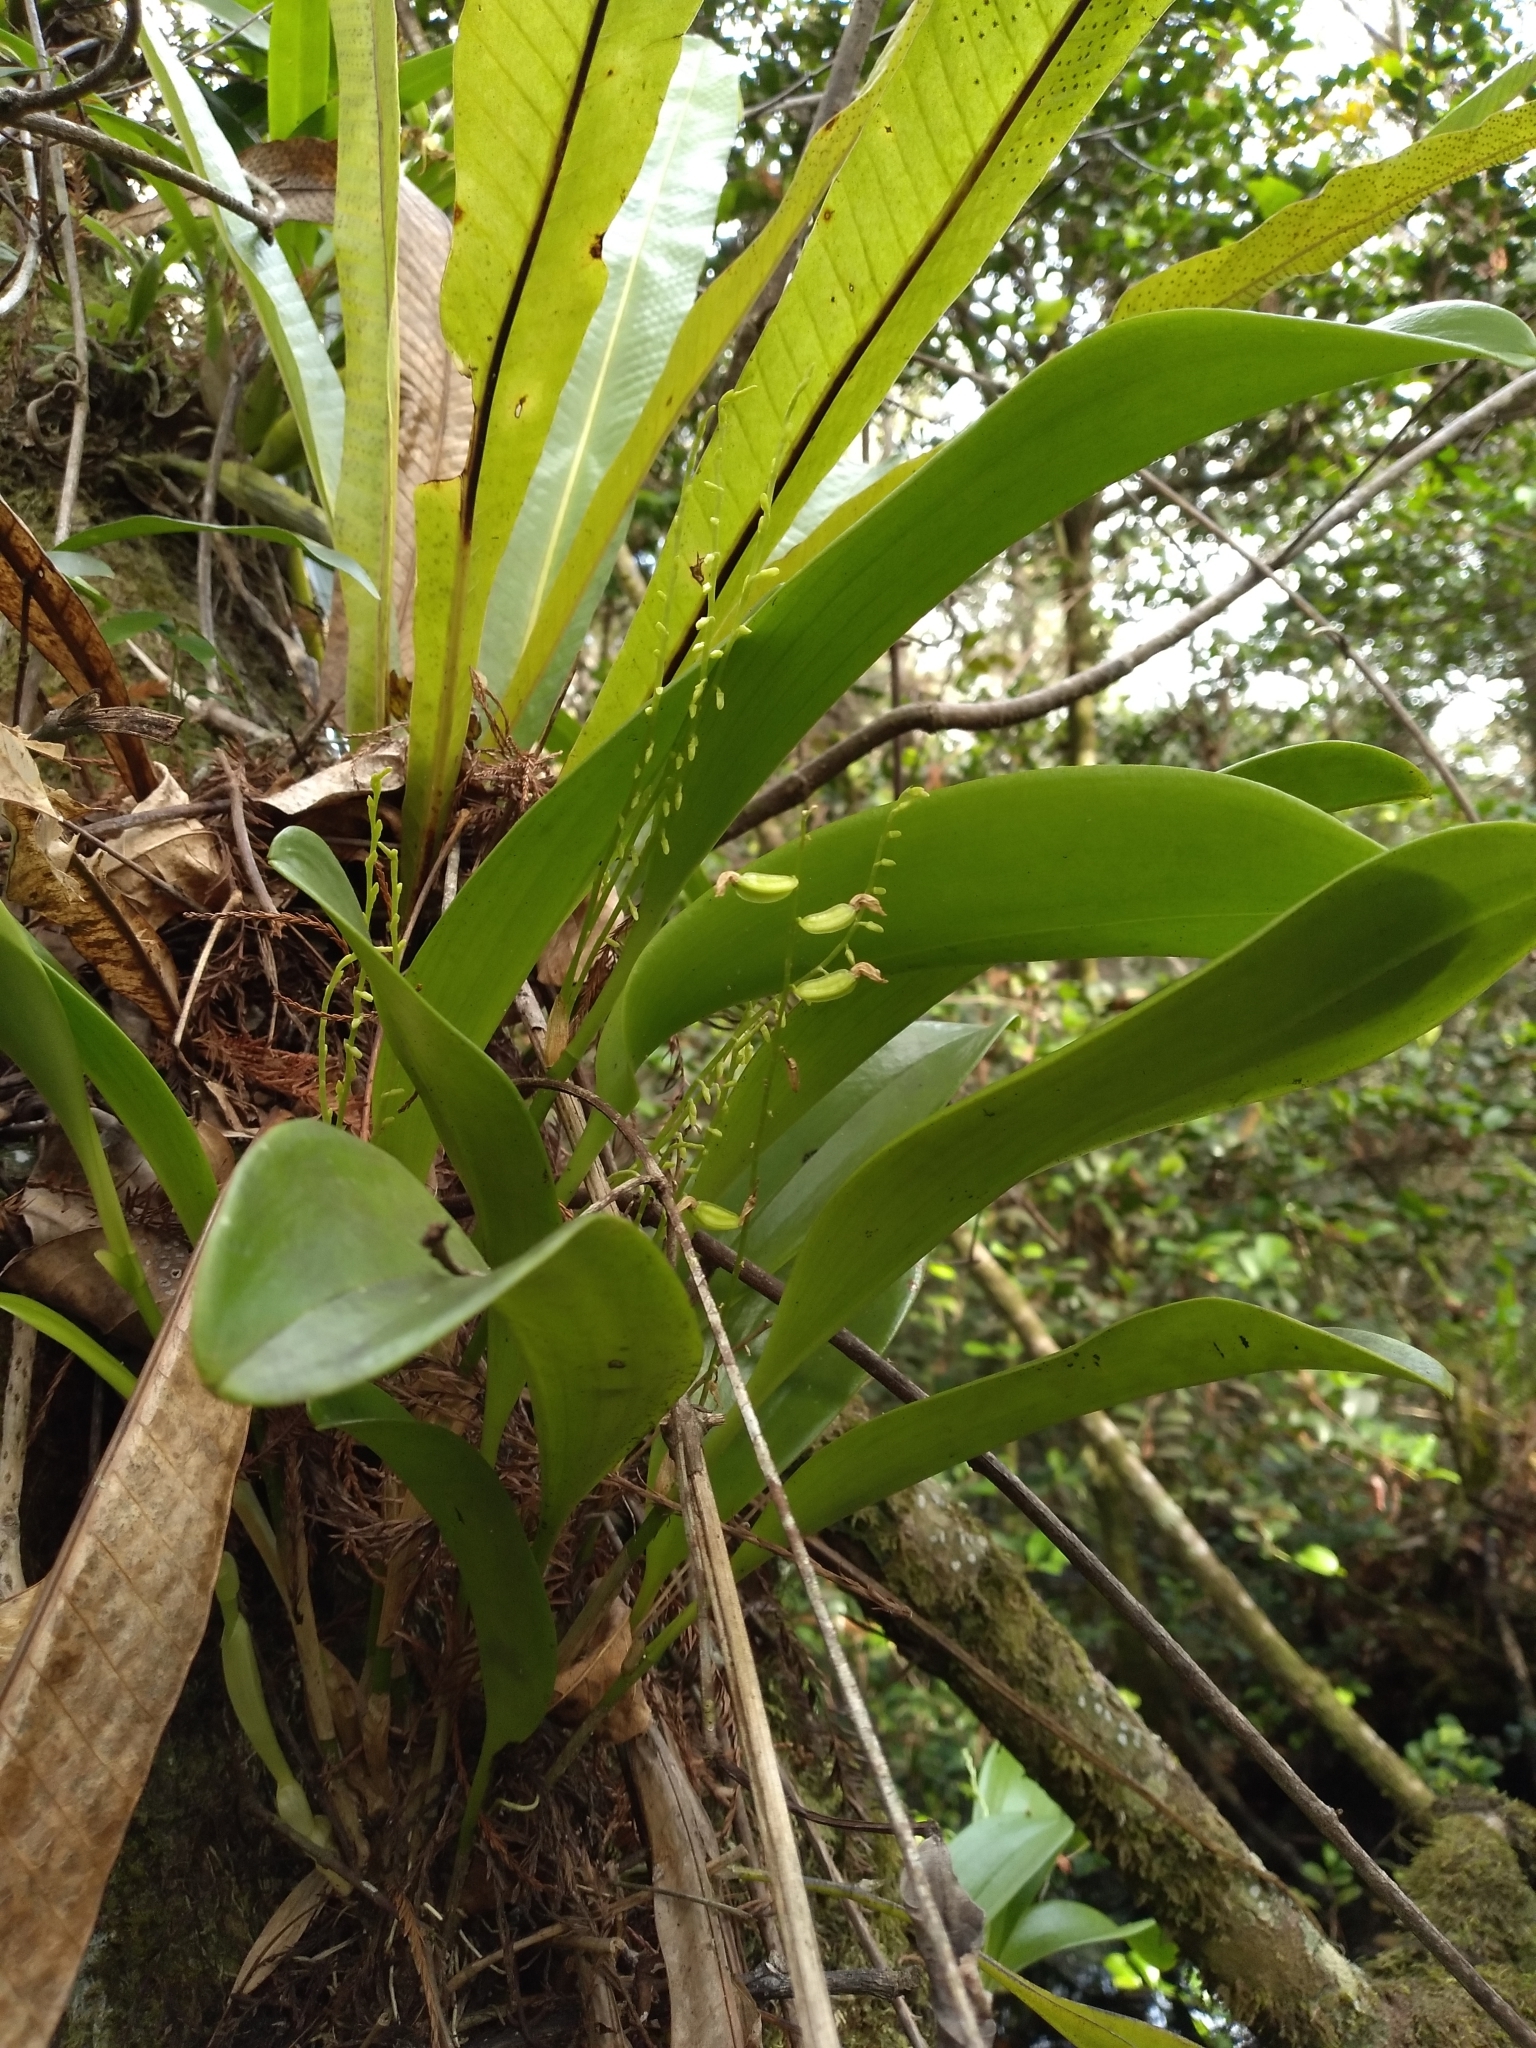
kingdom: Plantae
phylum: Tracheophyta
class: Liliopsida
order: Asparagales
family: Orchidaceae
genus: Stelis
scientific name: Stelis gelida
